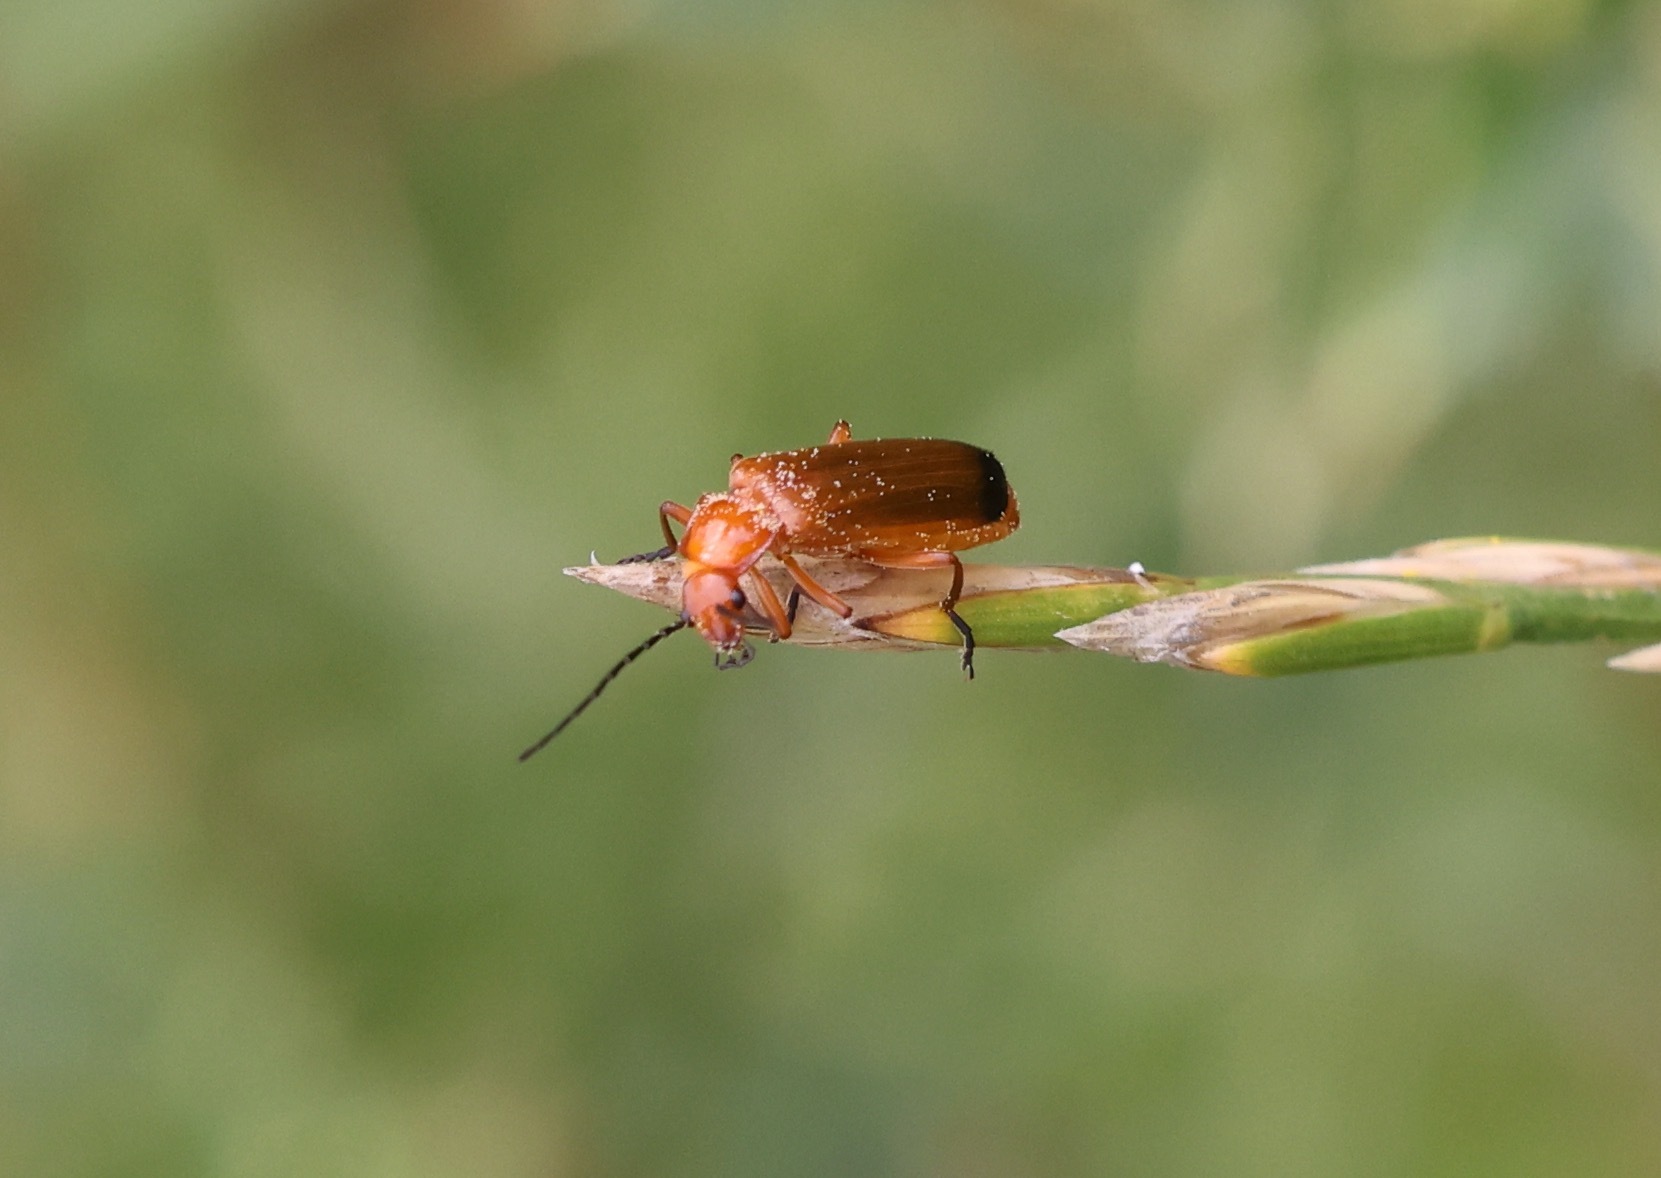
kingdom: Animalia
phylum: Arthropoda
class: Insecta
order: Coleoptera
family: Cantharidae
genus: Rhagonycha
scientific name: Rhagonycha fulva
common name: Common red soldier beetle
